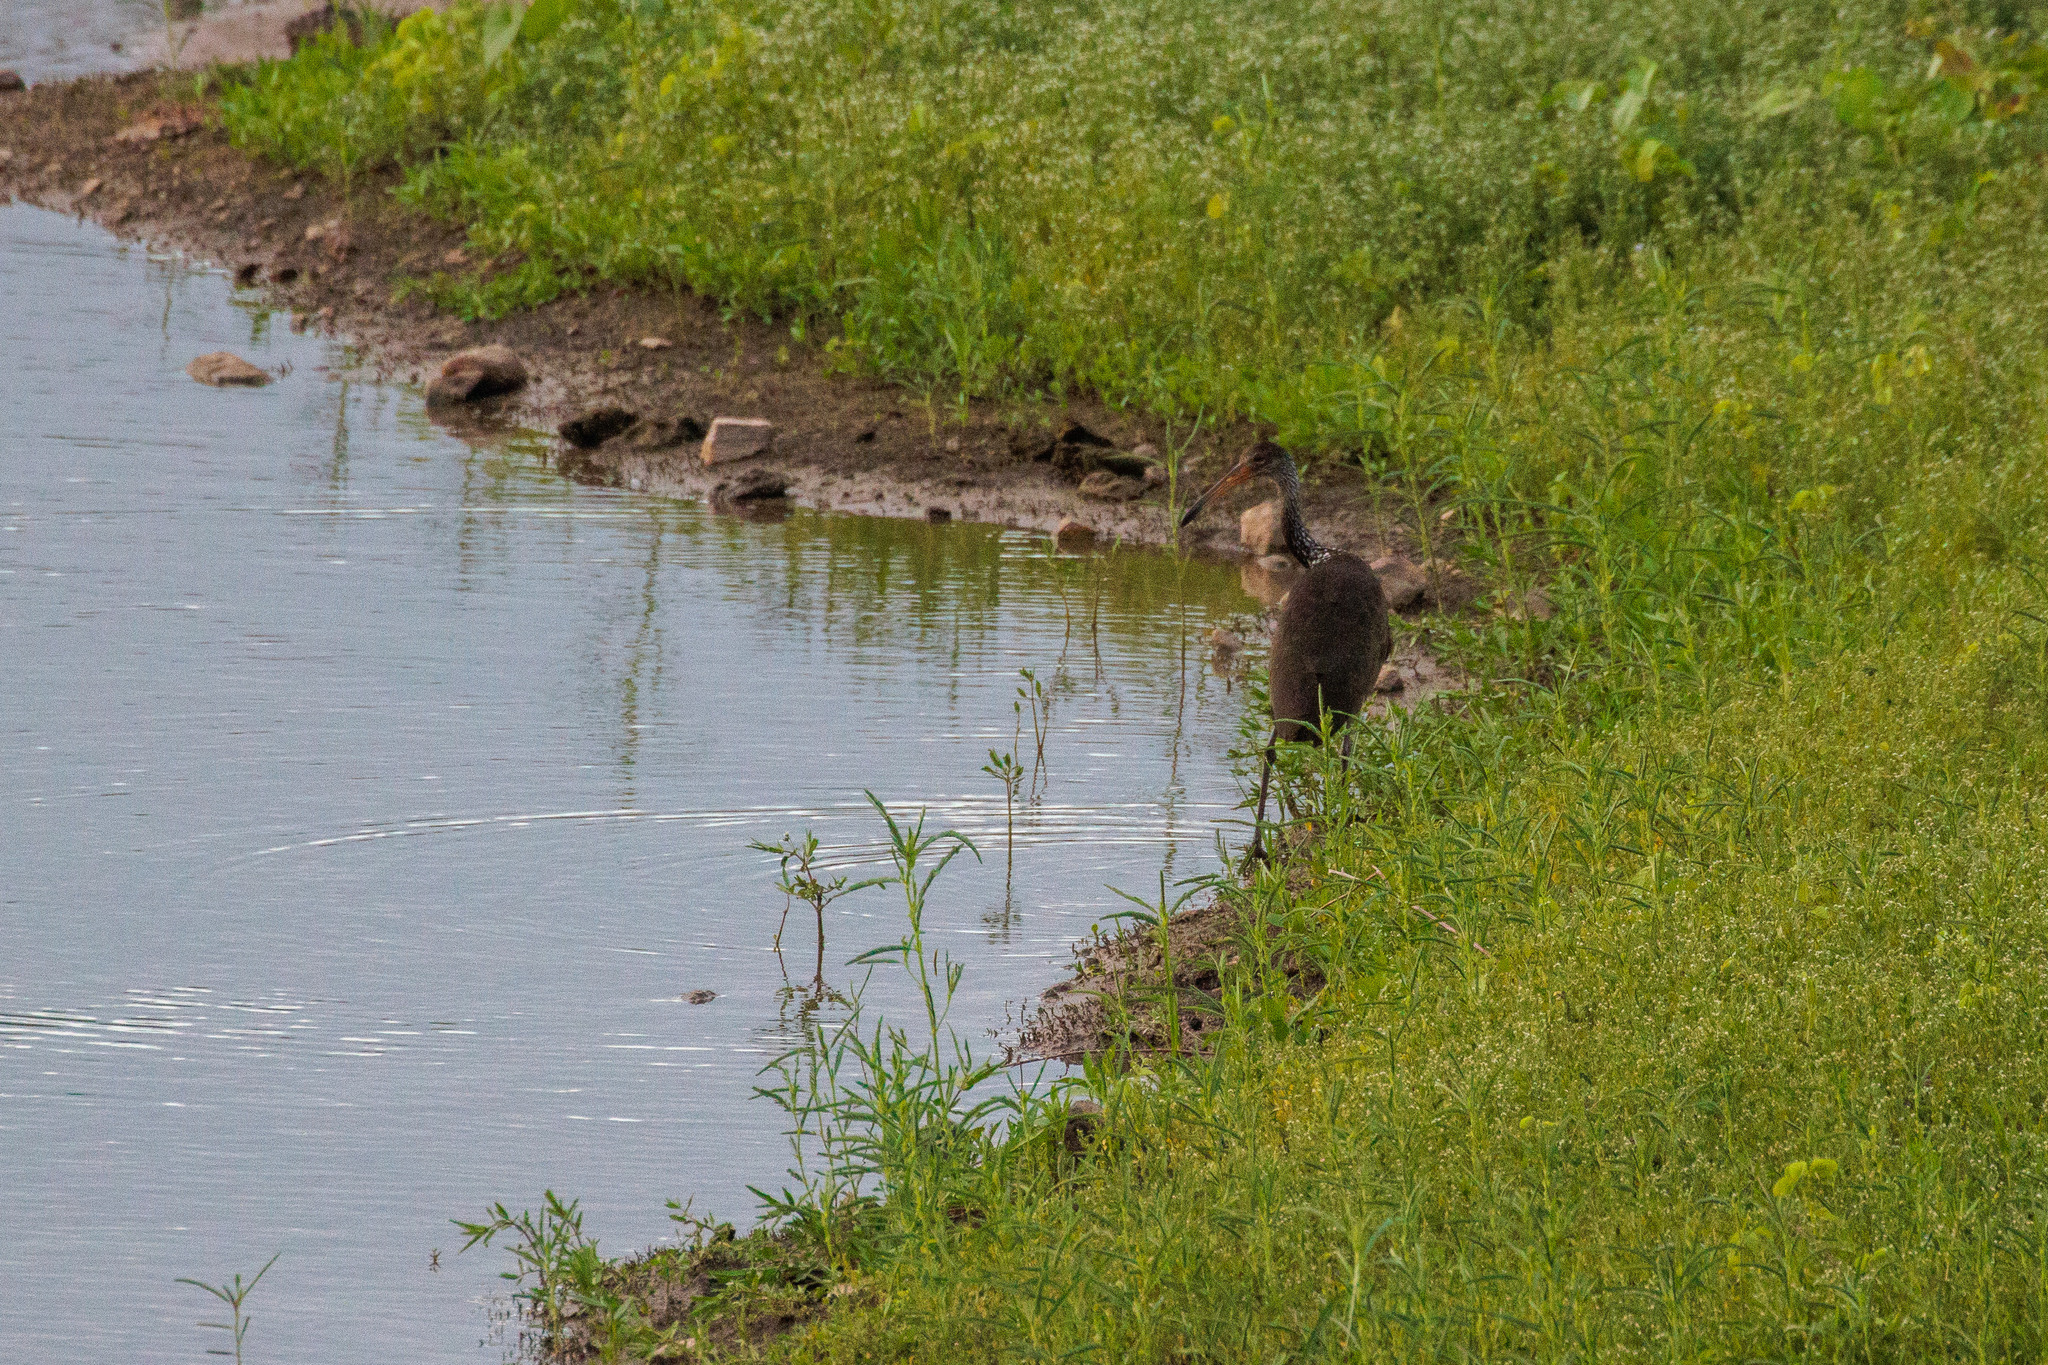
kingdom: Animalia
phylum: Chordata
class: Aves
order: Gruiformes
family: Aramidae
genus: Aramus
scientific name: Aramus guarauna
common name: Limpkin
